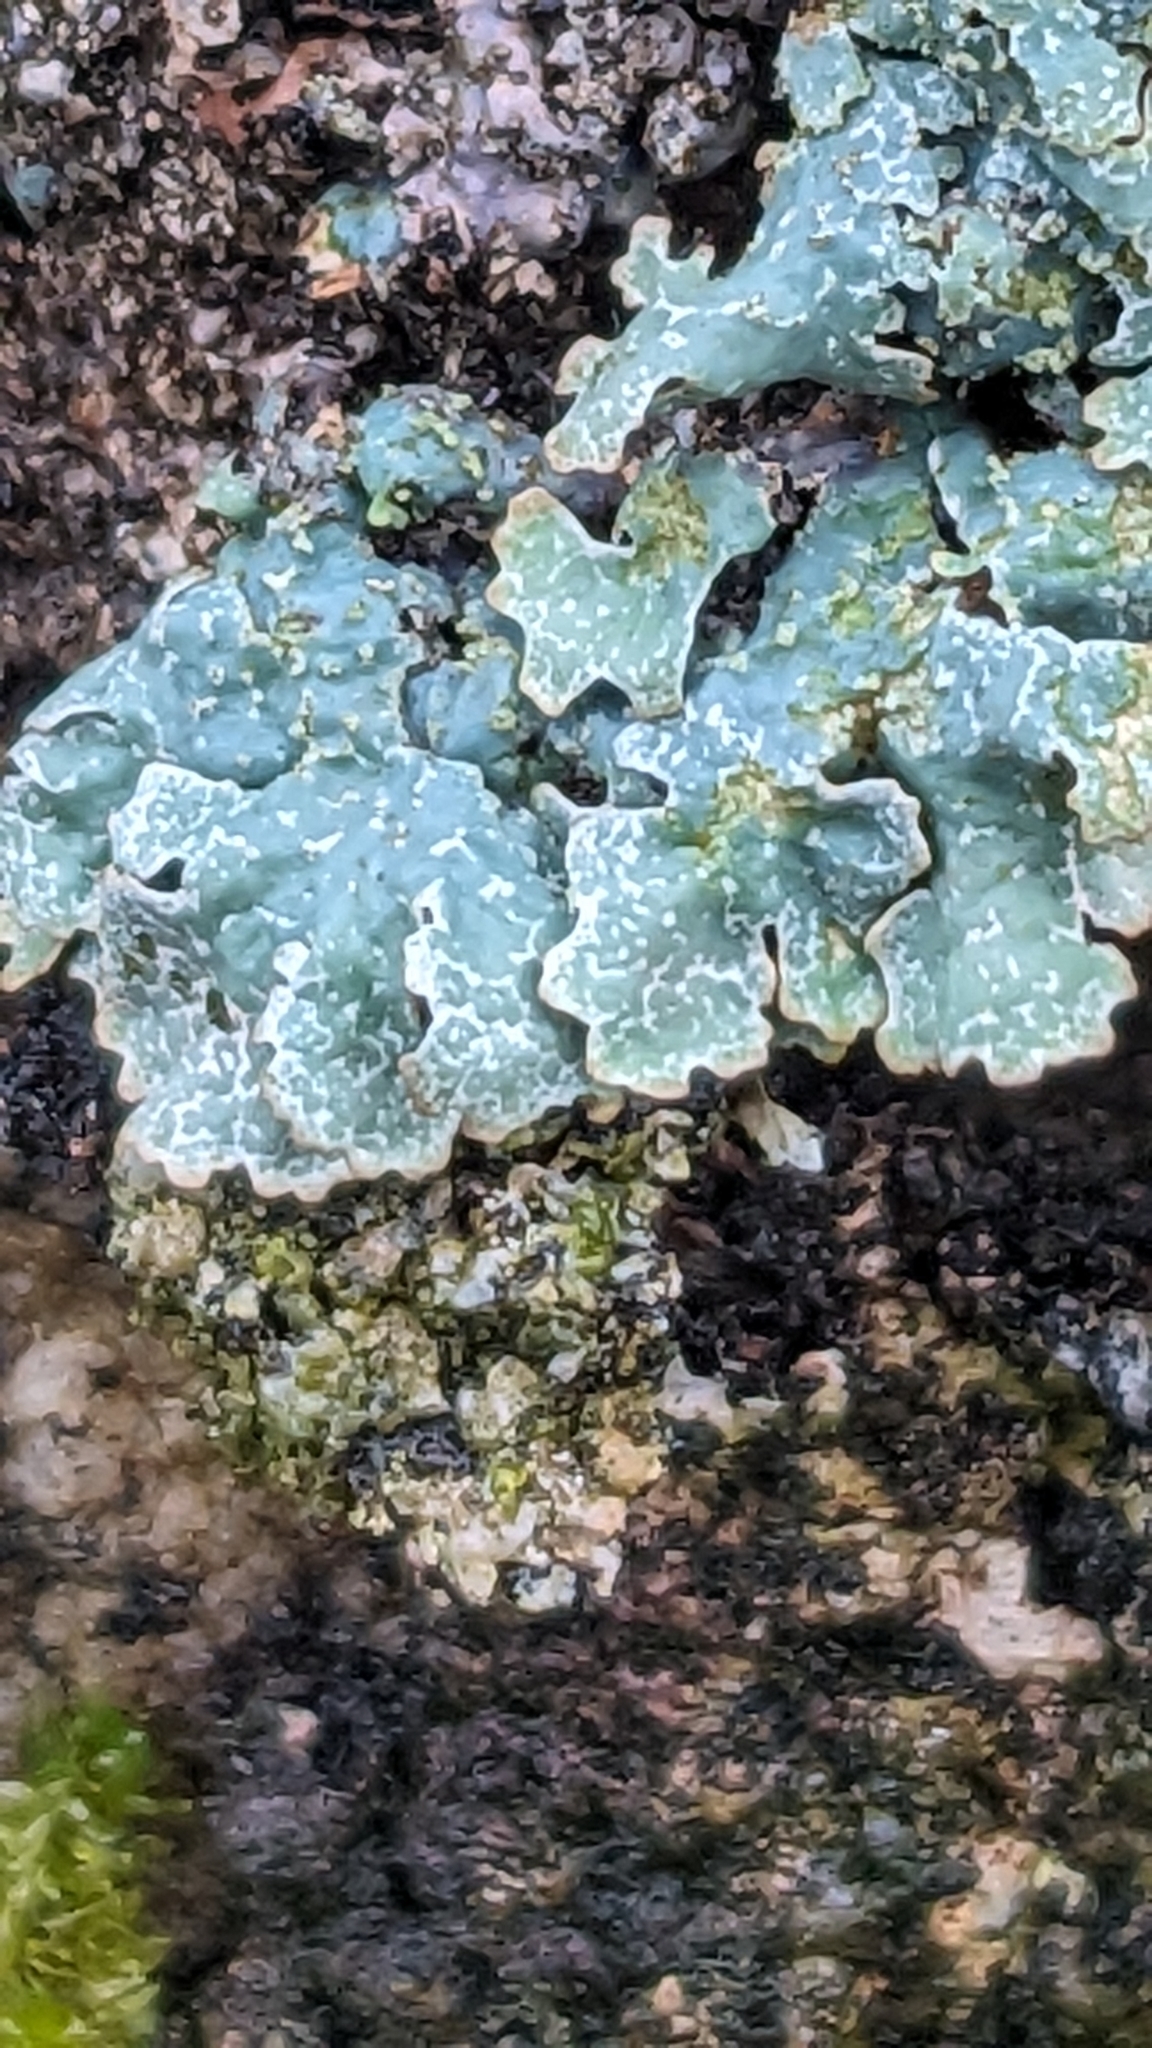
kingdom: Fungi
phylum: Ascomycota
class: Lecanoromycetes
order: Lecanorales
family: Parmeliaceae
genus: Parmelia
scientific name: Parmelia sulcata
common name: Netted shield lichen
